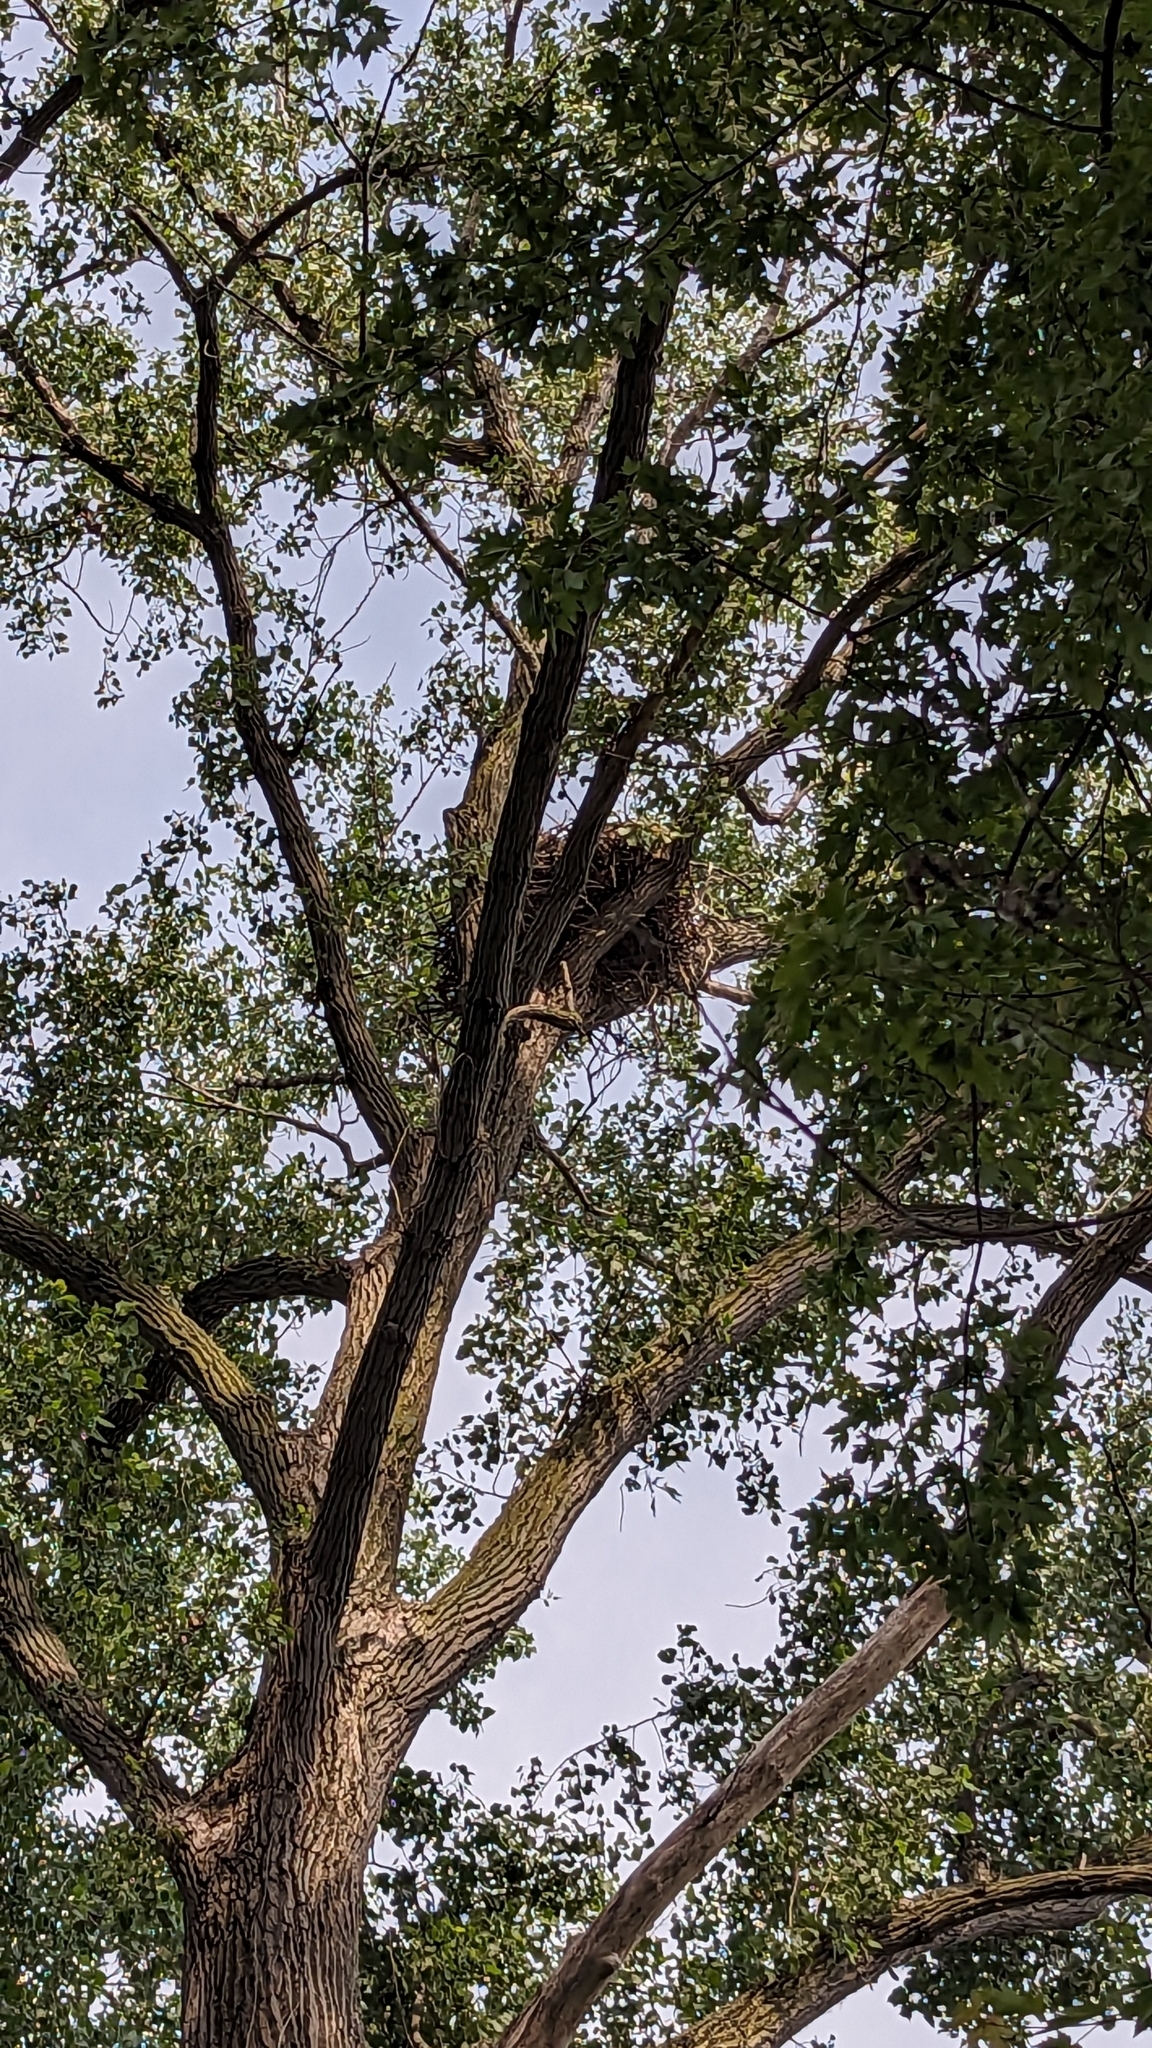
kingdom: Animalia
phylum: Chordata
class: Aves
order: Accipitriformes
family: Accipitridae
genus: Haliaeetus
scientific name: Haliaeetus leucocephalus
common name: Bald eagle
